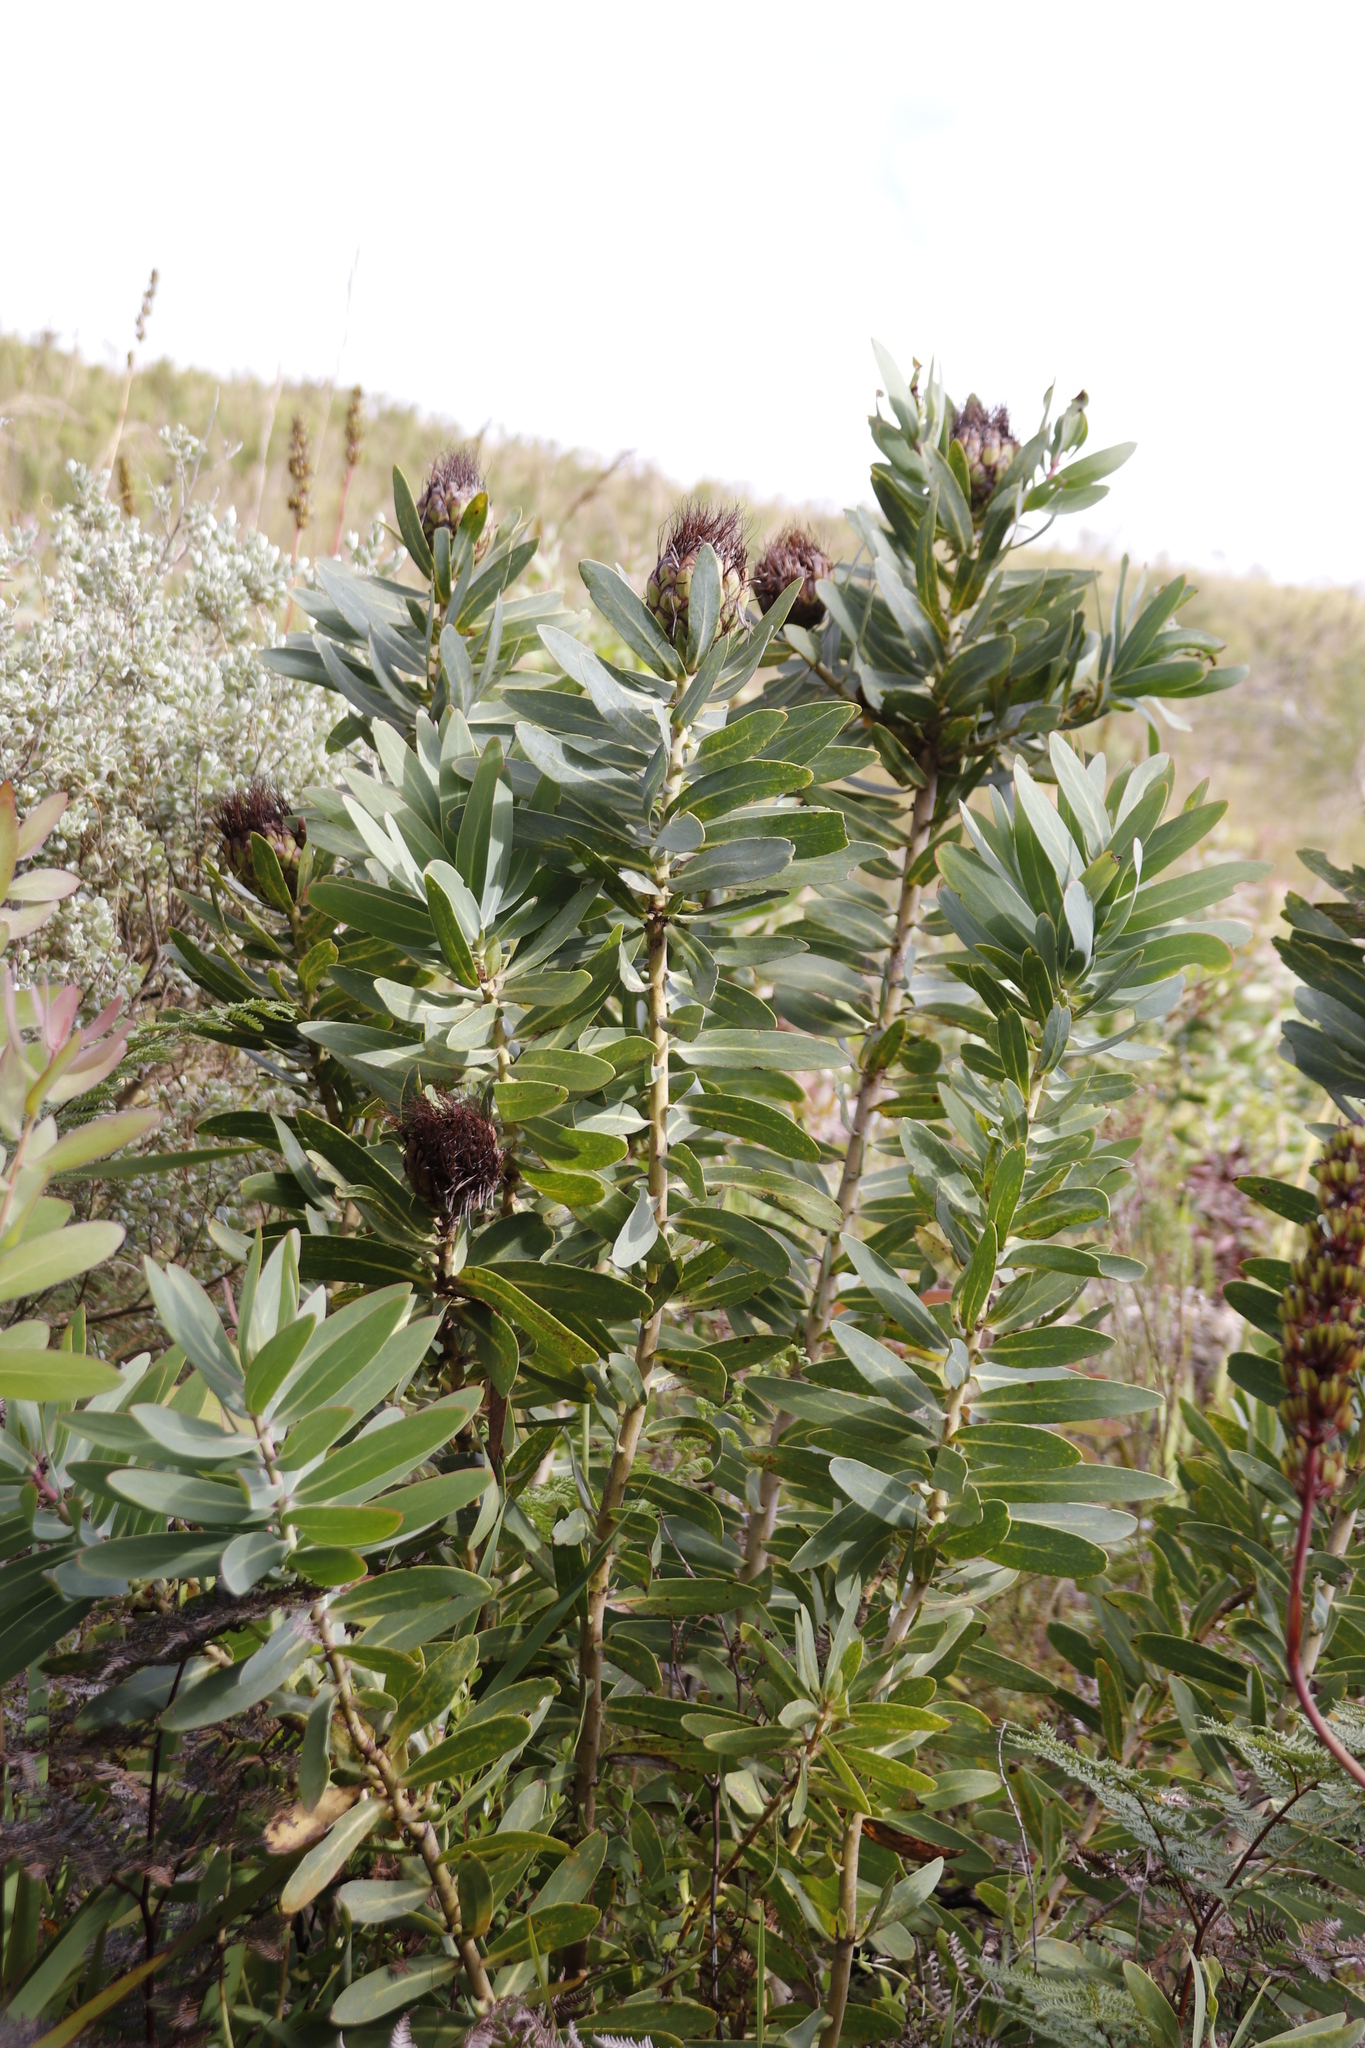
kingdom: Plantae
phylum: Tracheophyta
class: Magnoliopsida
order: Proteales
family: Proteaceae
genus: Protea
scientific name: Protea nitida
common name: Tree protea
